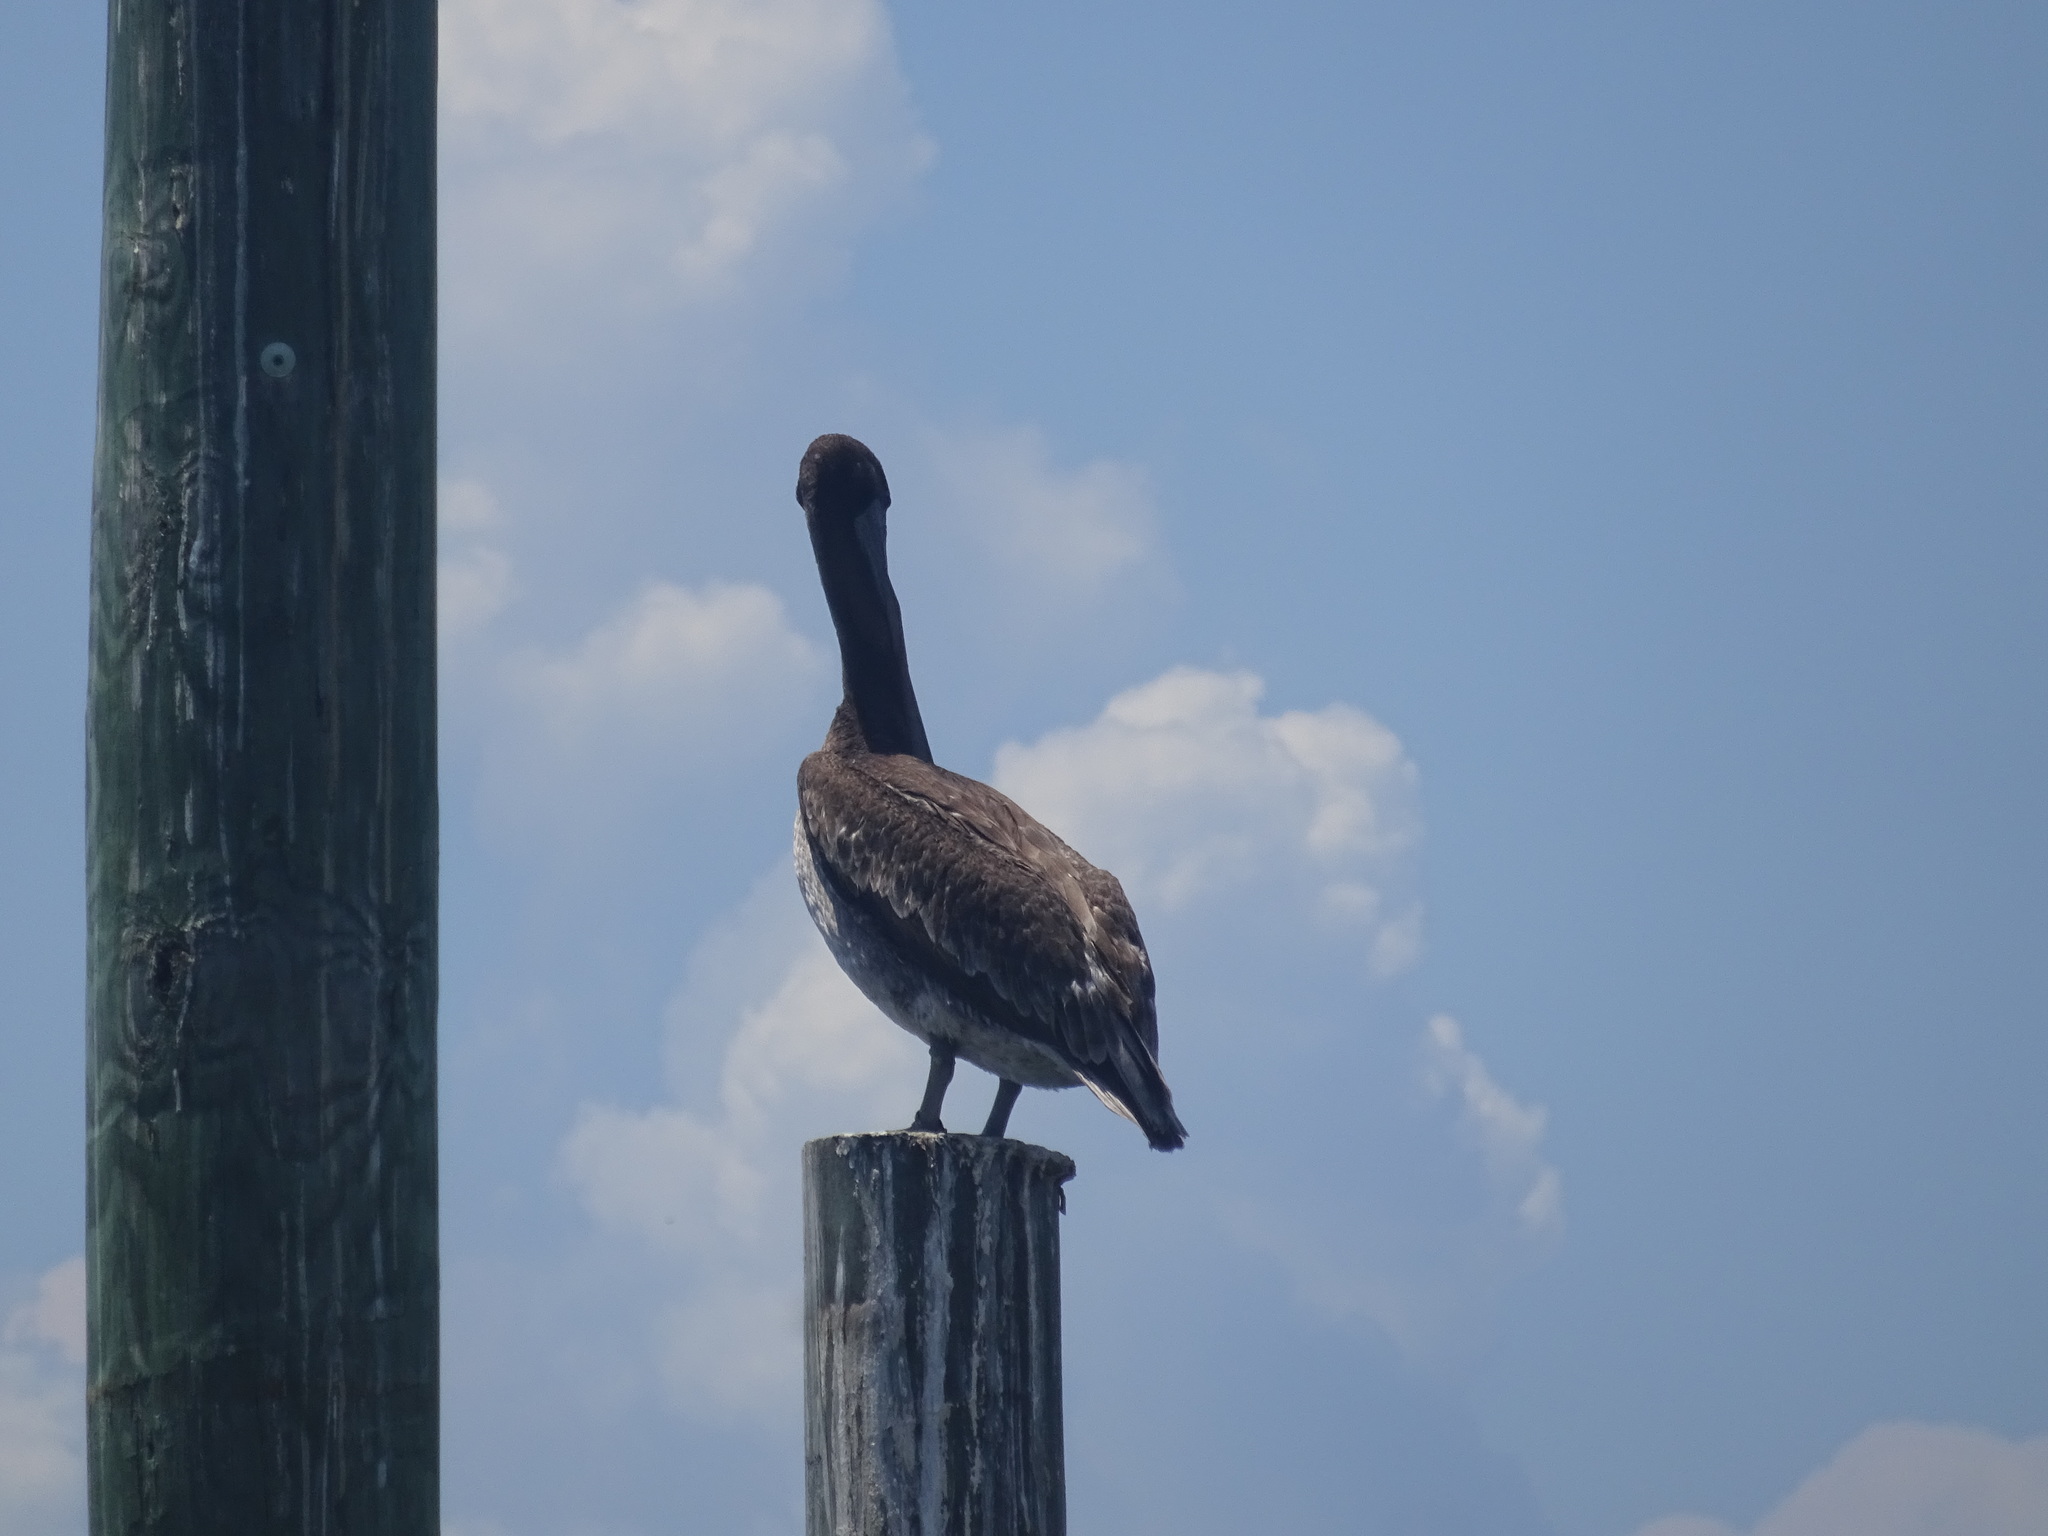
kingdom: Animalia
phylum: Chordata
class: Aves
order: Pelecaniformes
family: Pelecanidae
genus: Pelecanus
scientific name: Pelecanus occidentalis
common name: Brown pelican
